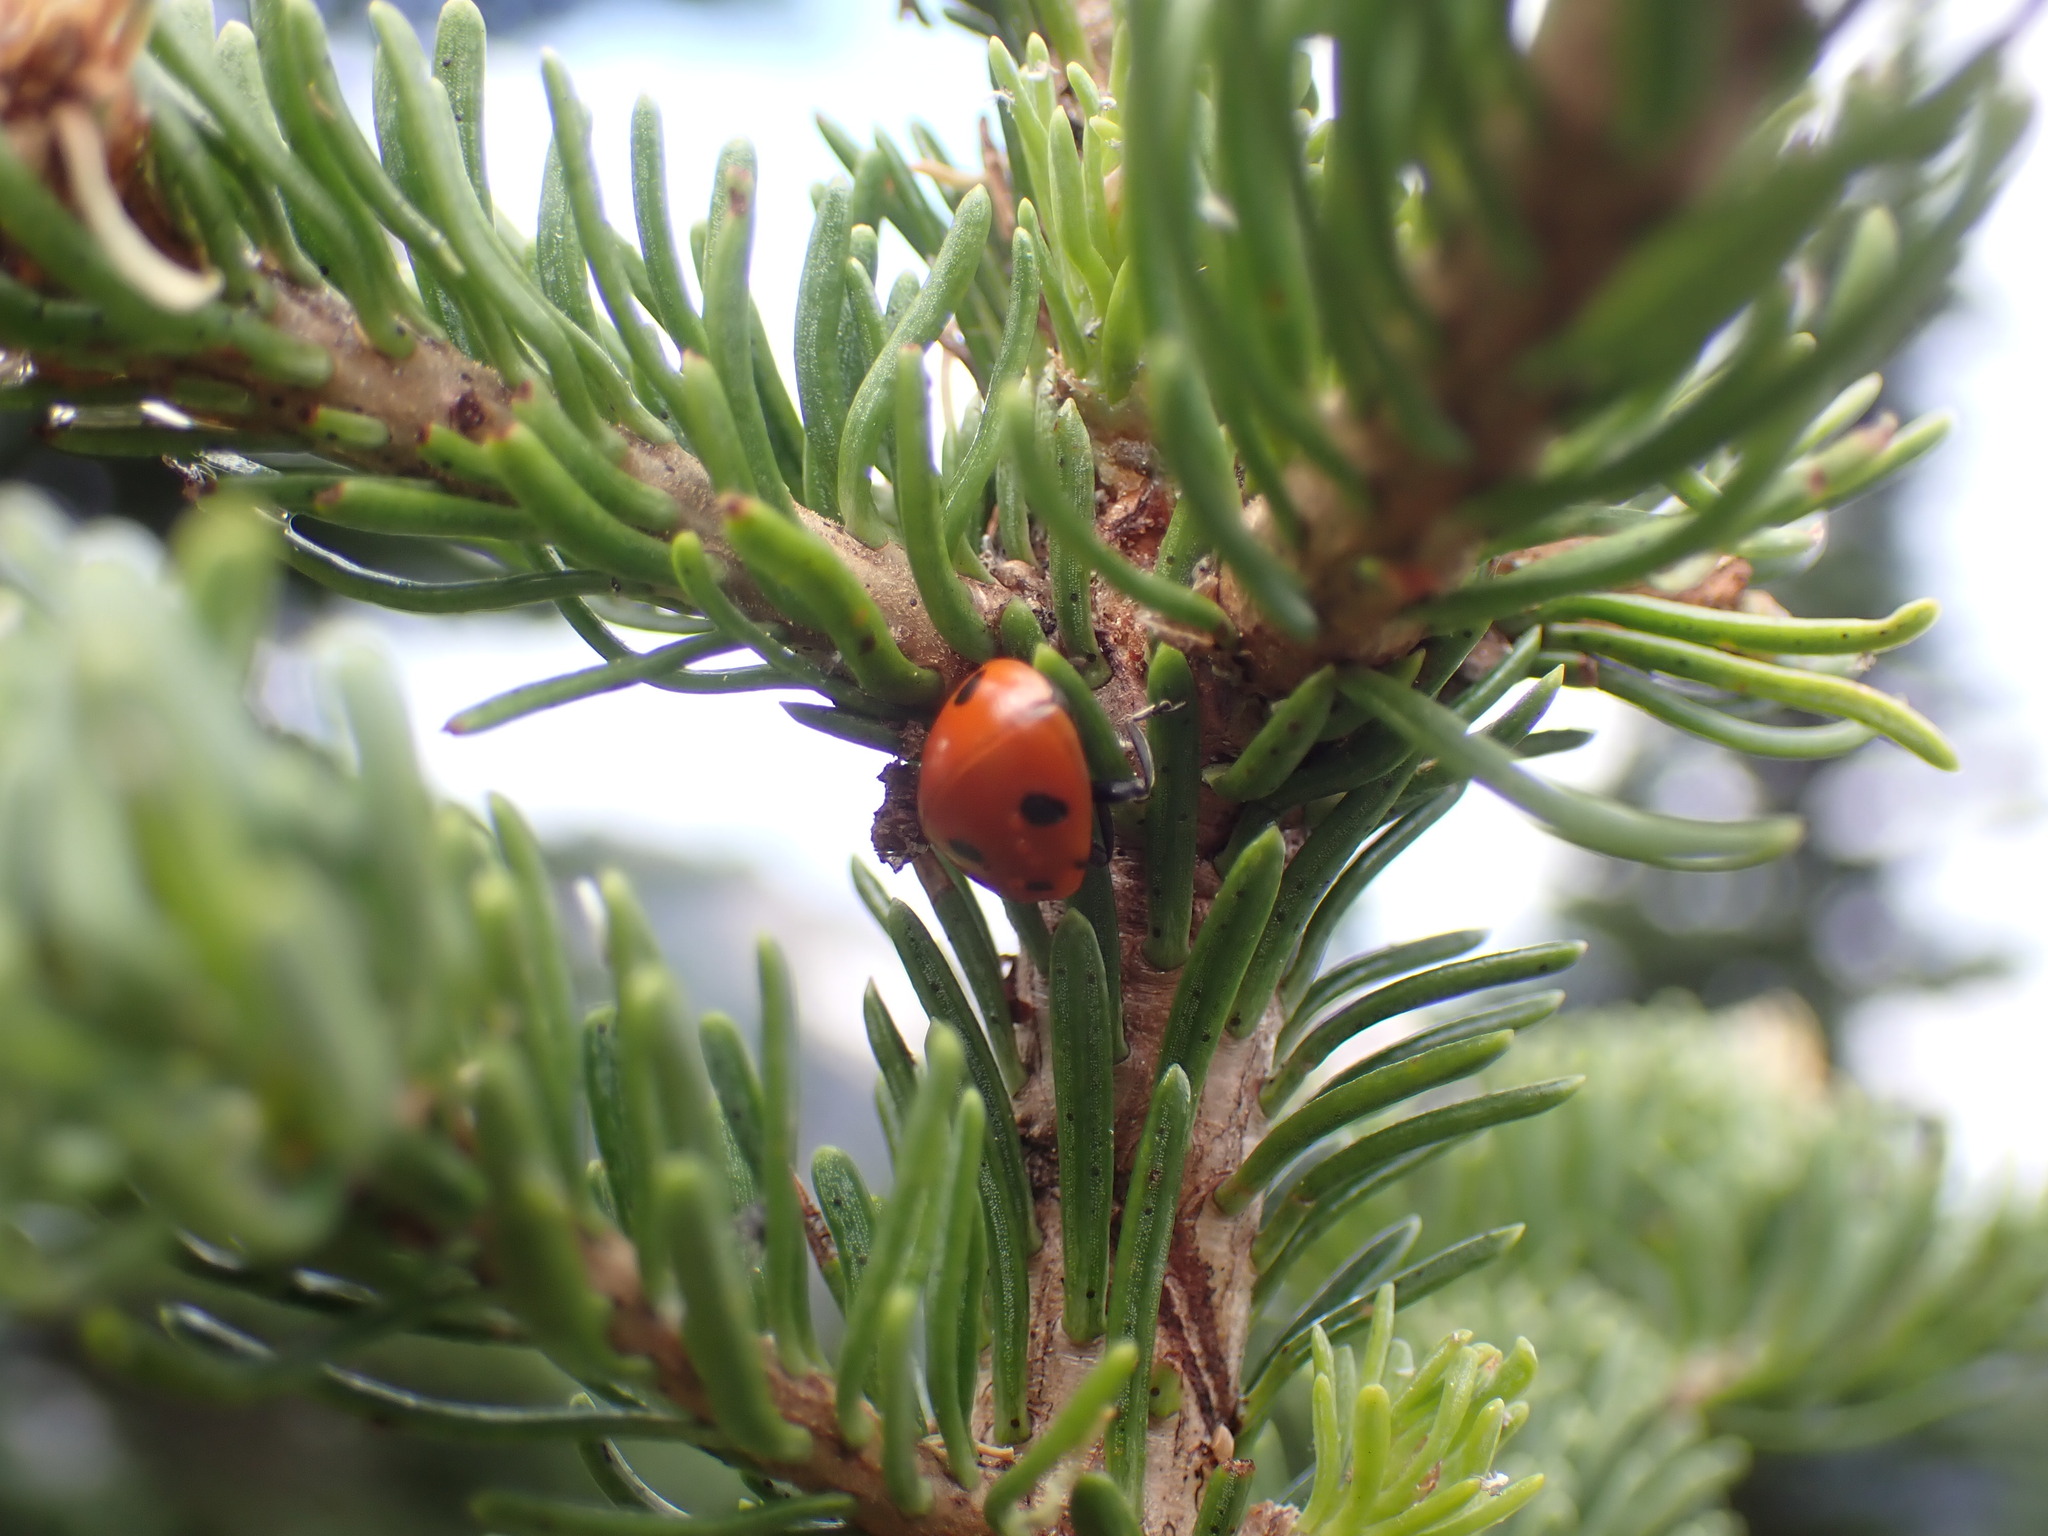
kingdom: Animalia
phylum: Arthropoda
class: Insecta
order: Coleoptera
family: Coccinellidae
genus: Coccinella
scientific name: Coccinella septempunctata
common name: Sevenspotted lady beetle
